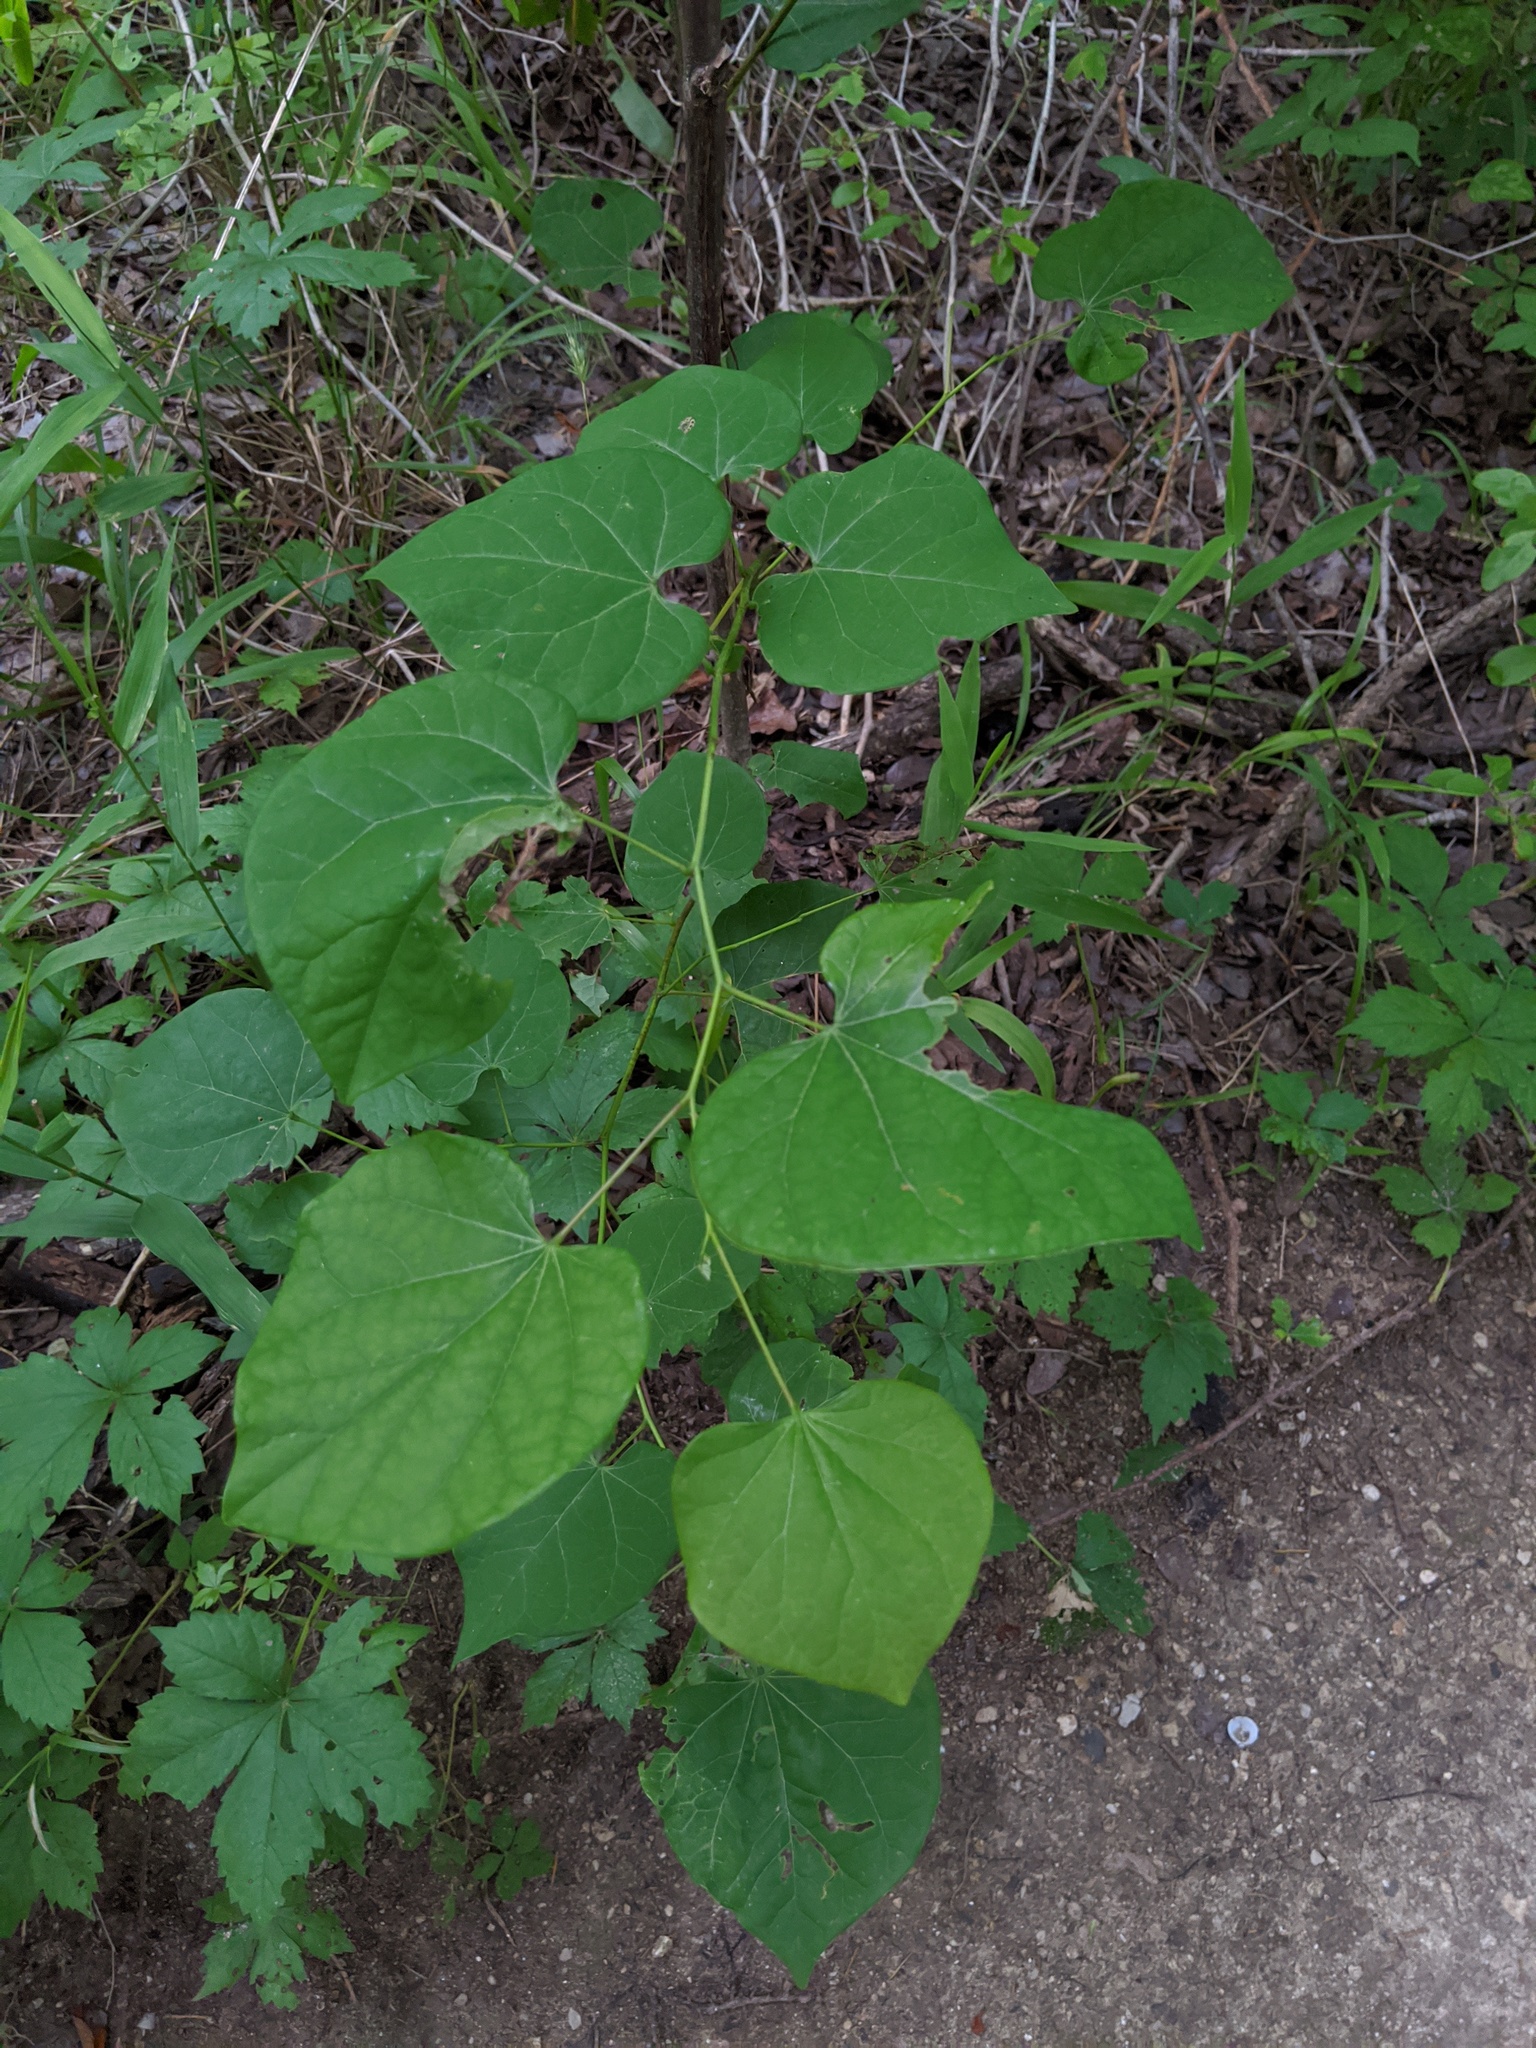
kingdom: Plantae
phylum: Tracheophyta
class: Magnoliopsida
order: Fabales
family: Fabaceae
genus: Cercis
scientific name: Cercis canadensis
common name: Eastern redbud
